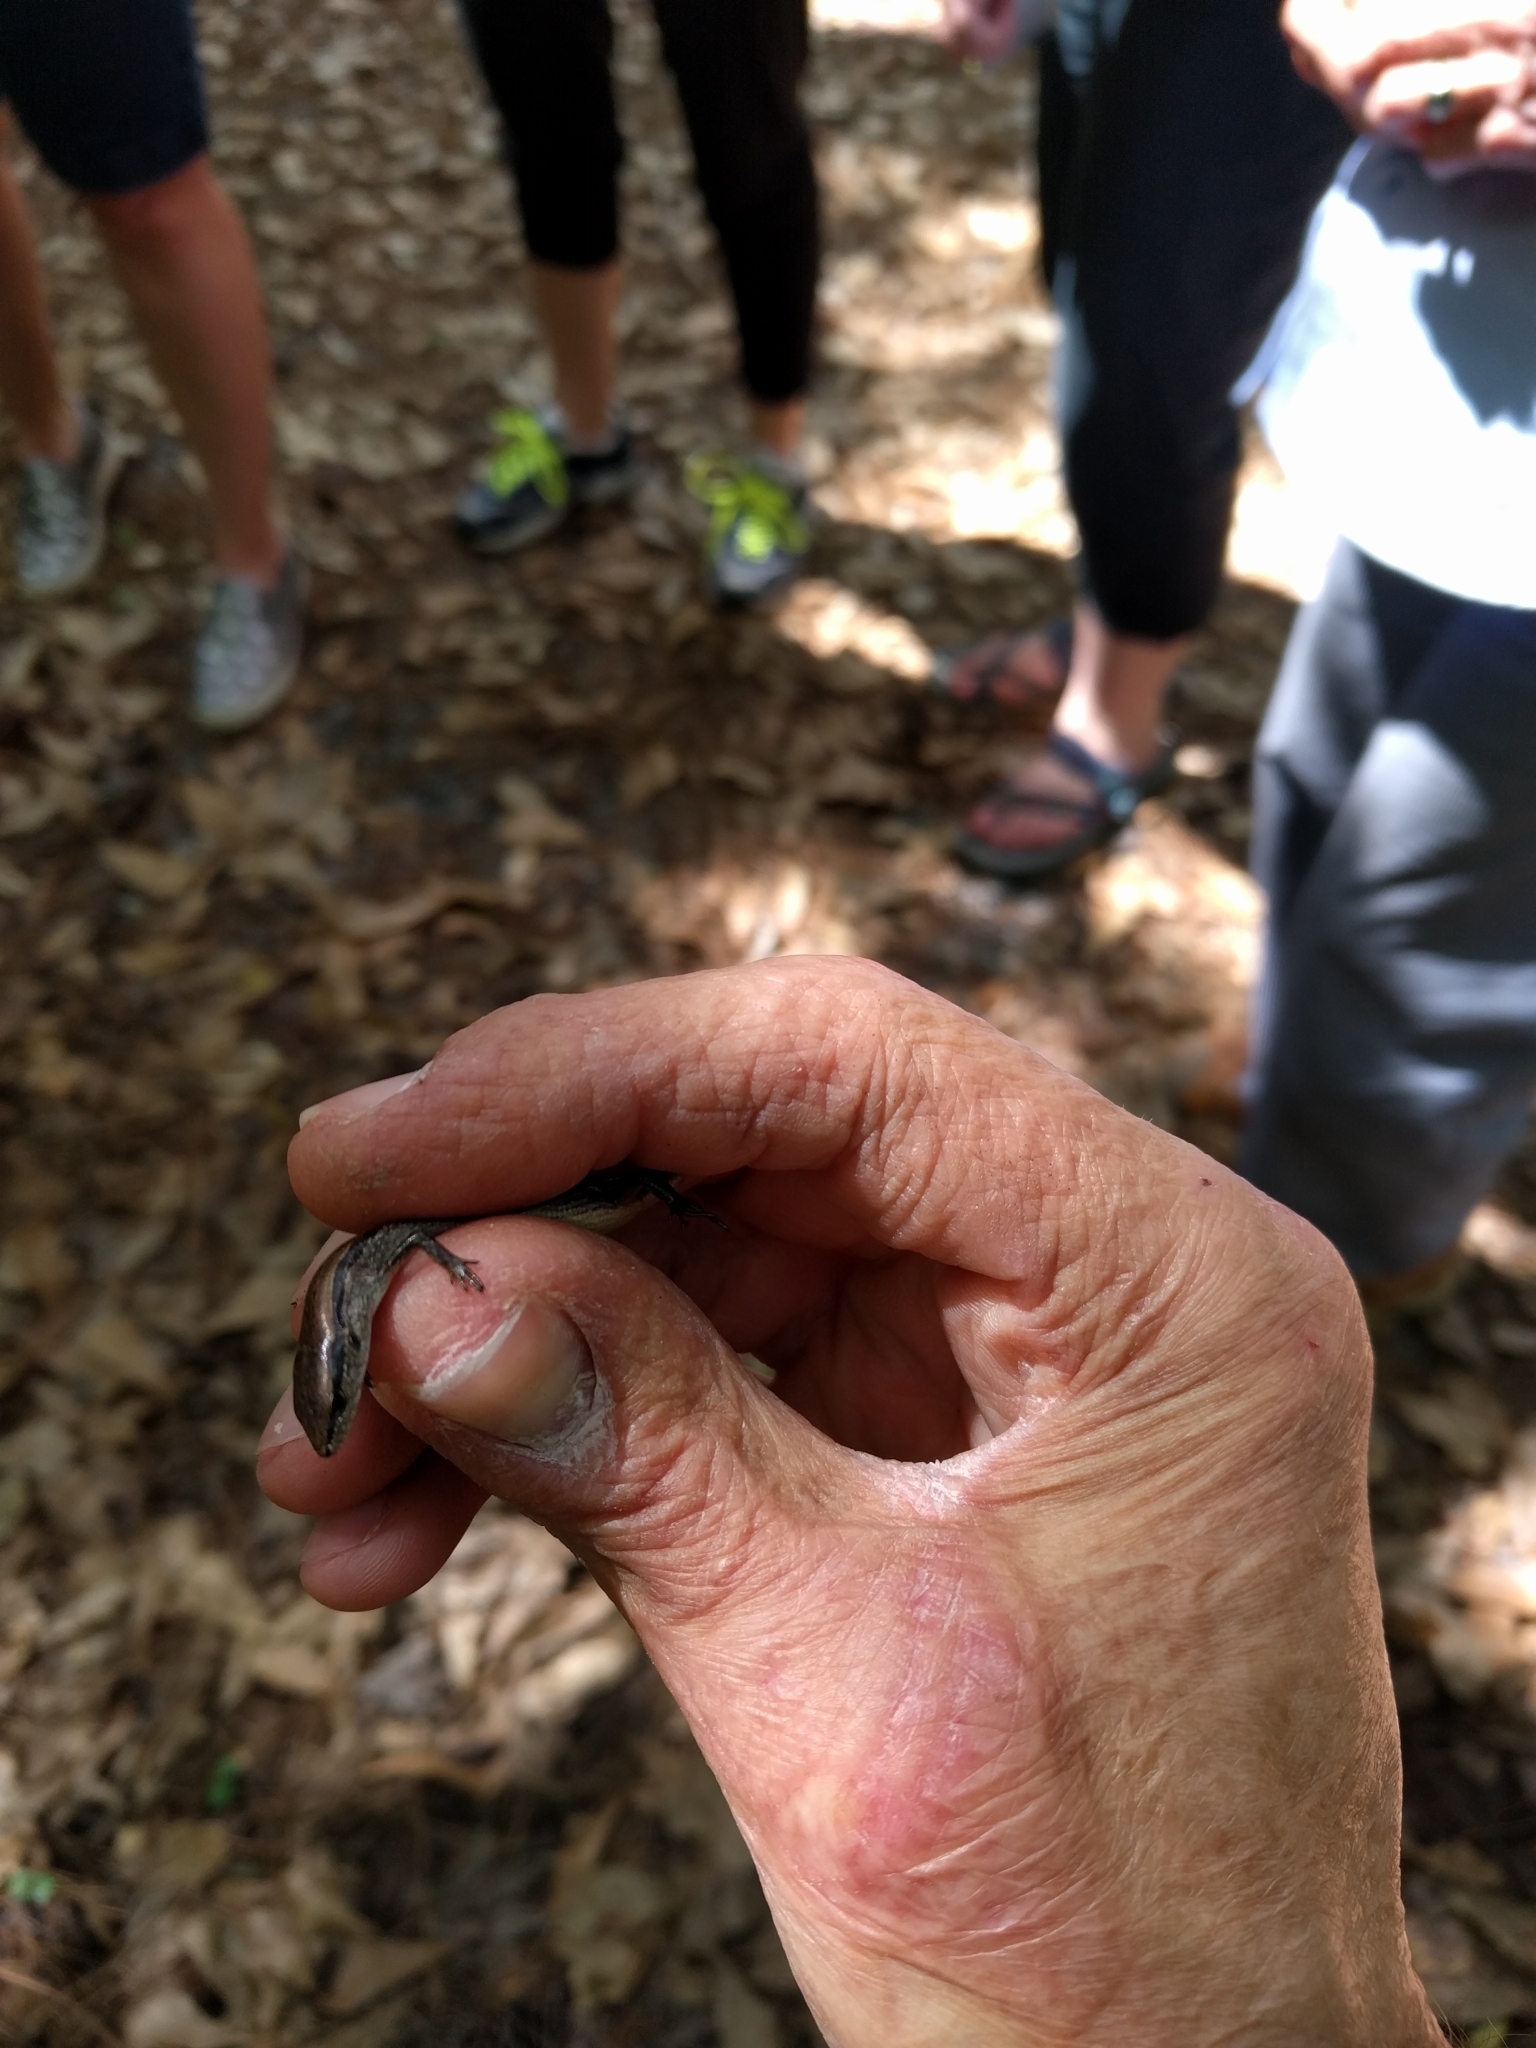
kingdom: Animalia
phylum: Chordata
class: Squamata
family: Scincidae
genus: Scincella
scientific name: Scincella lateralis
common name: Ground skink
